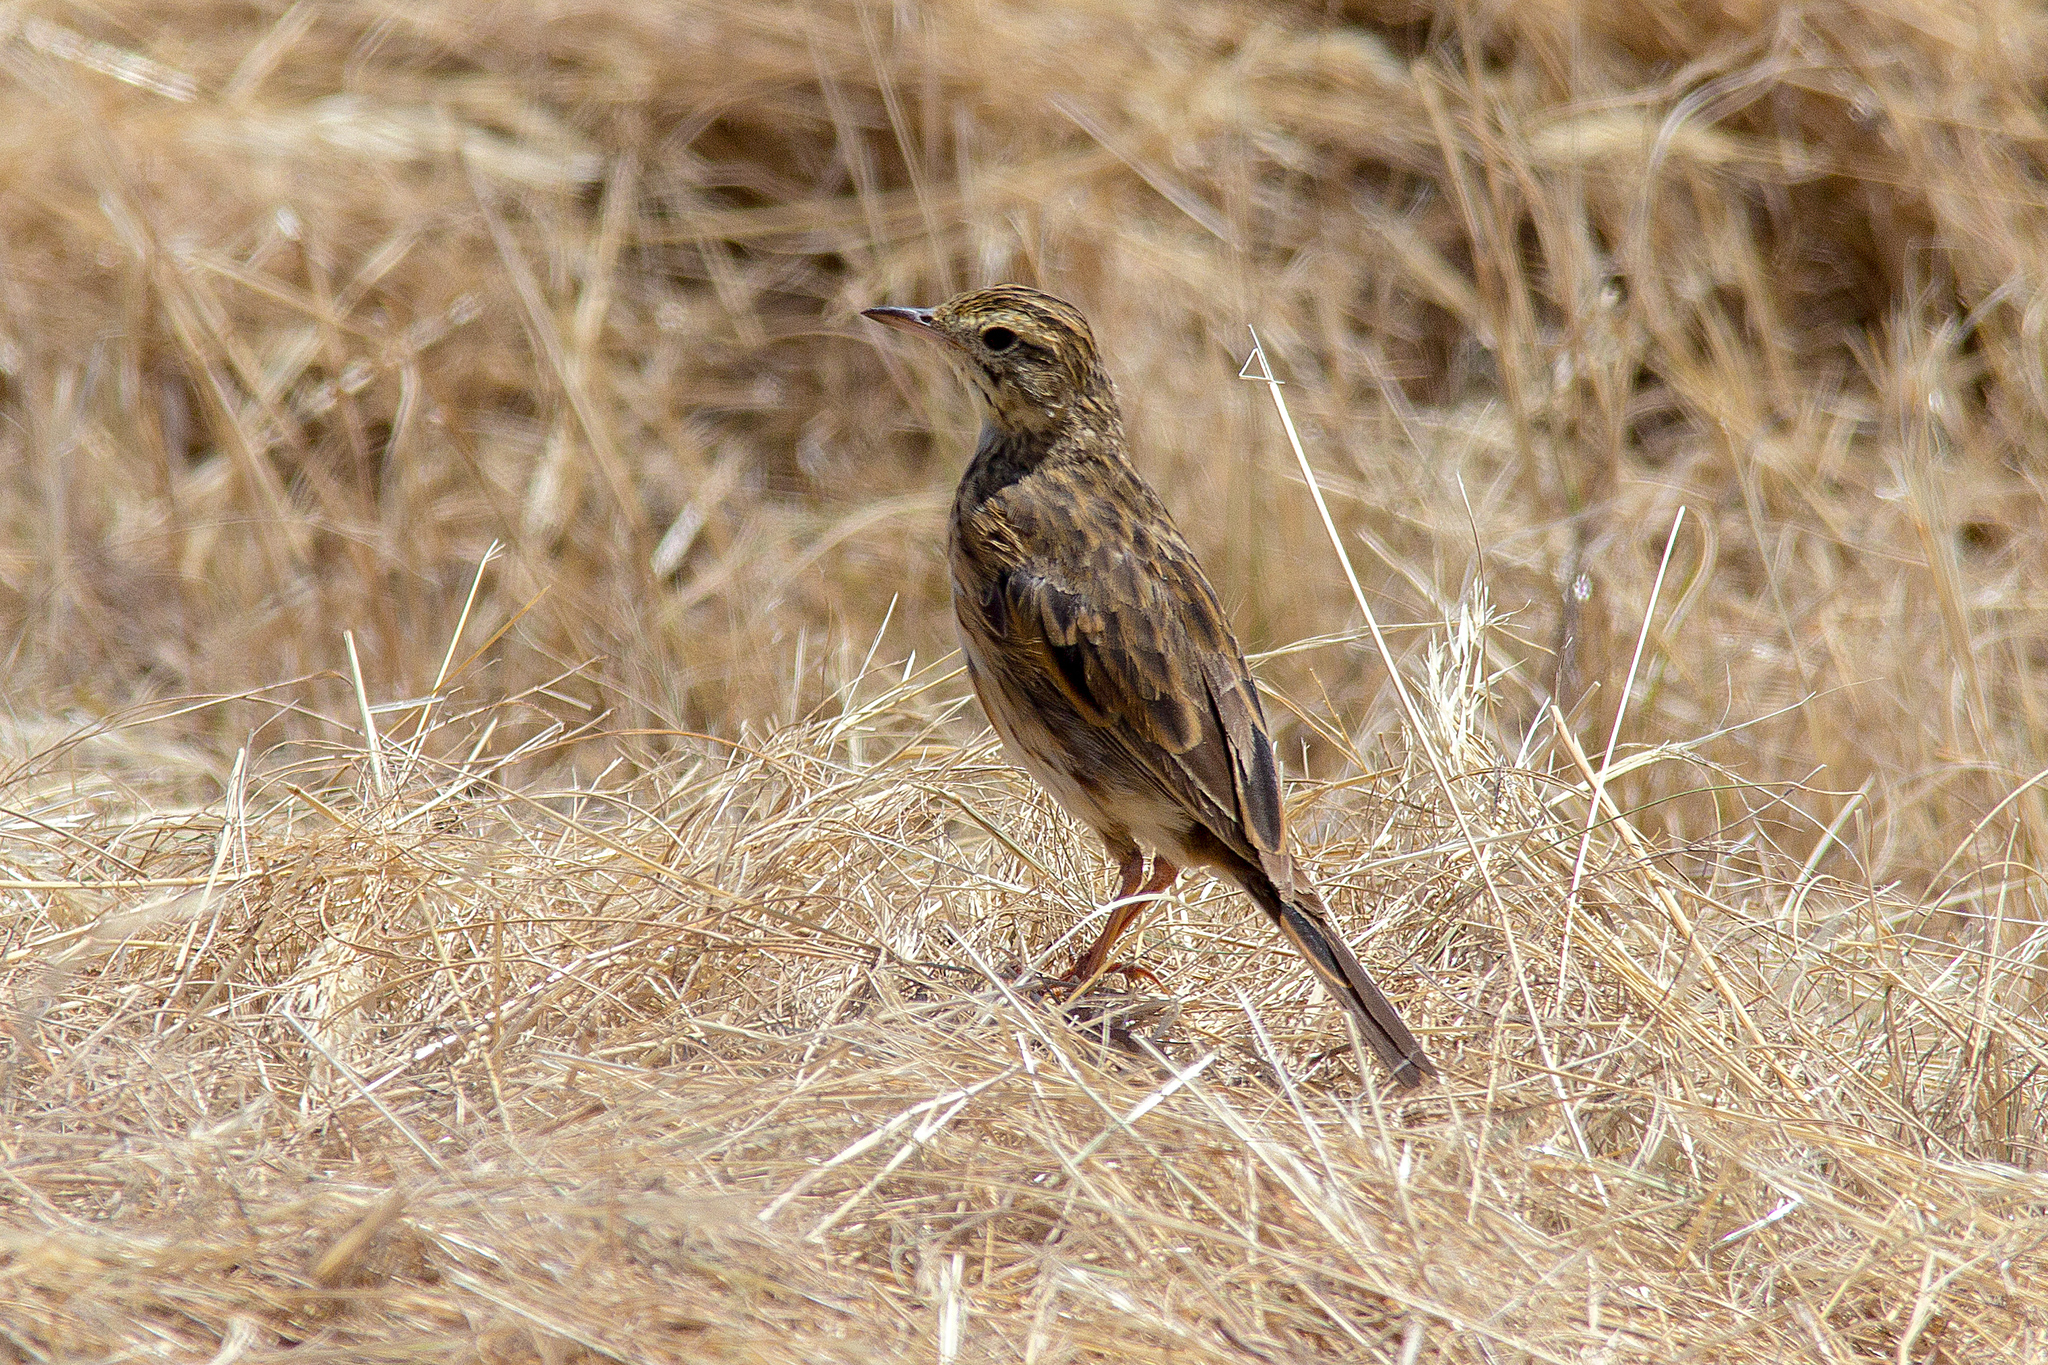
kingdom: Animalia
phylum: Chordata
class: Aves
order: Passeriformes
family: Motacillidae
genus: Anthus
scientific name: Anthus australis
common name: Australian pipit
